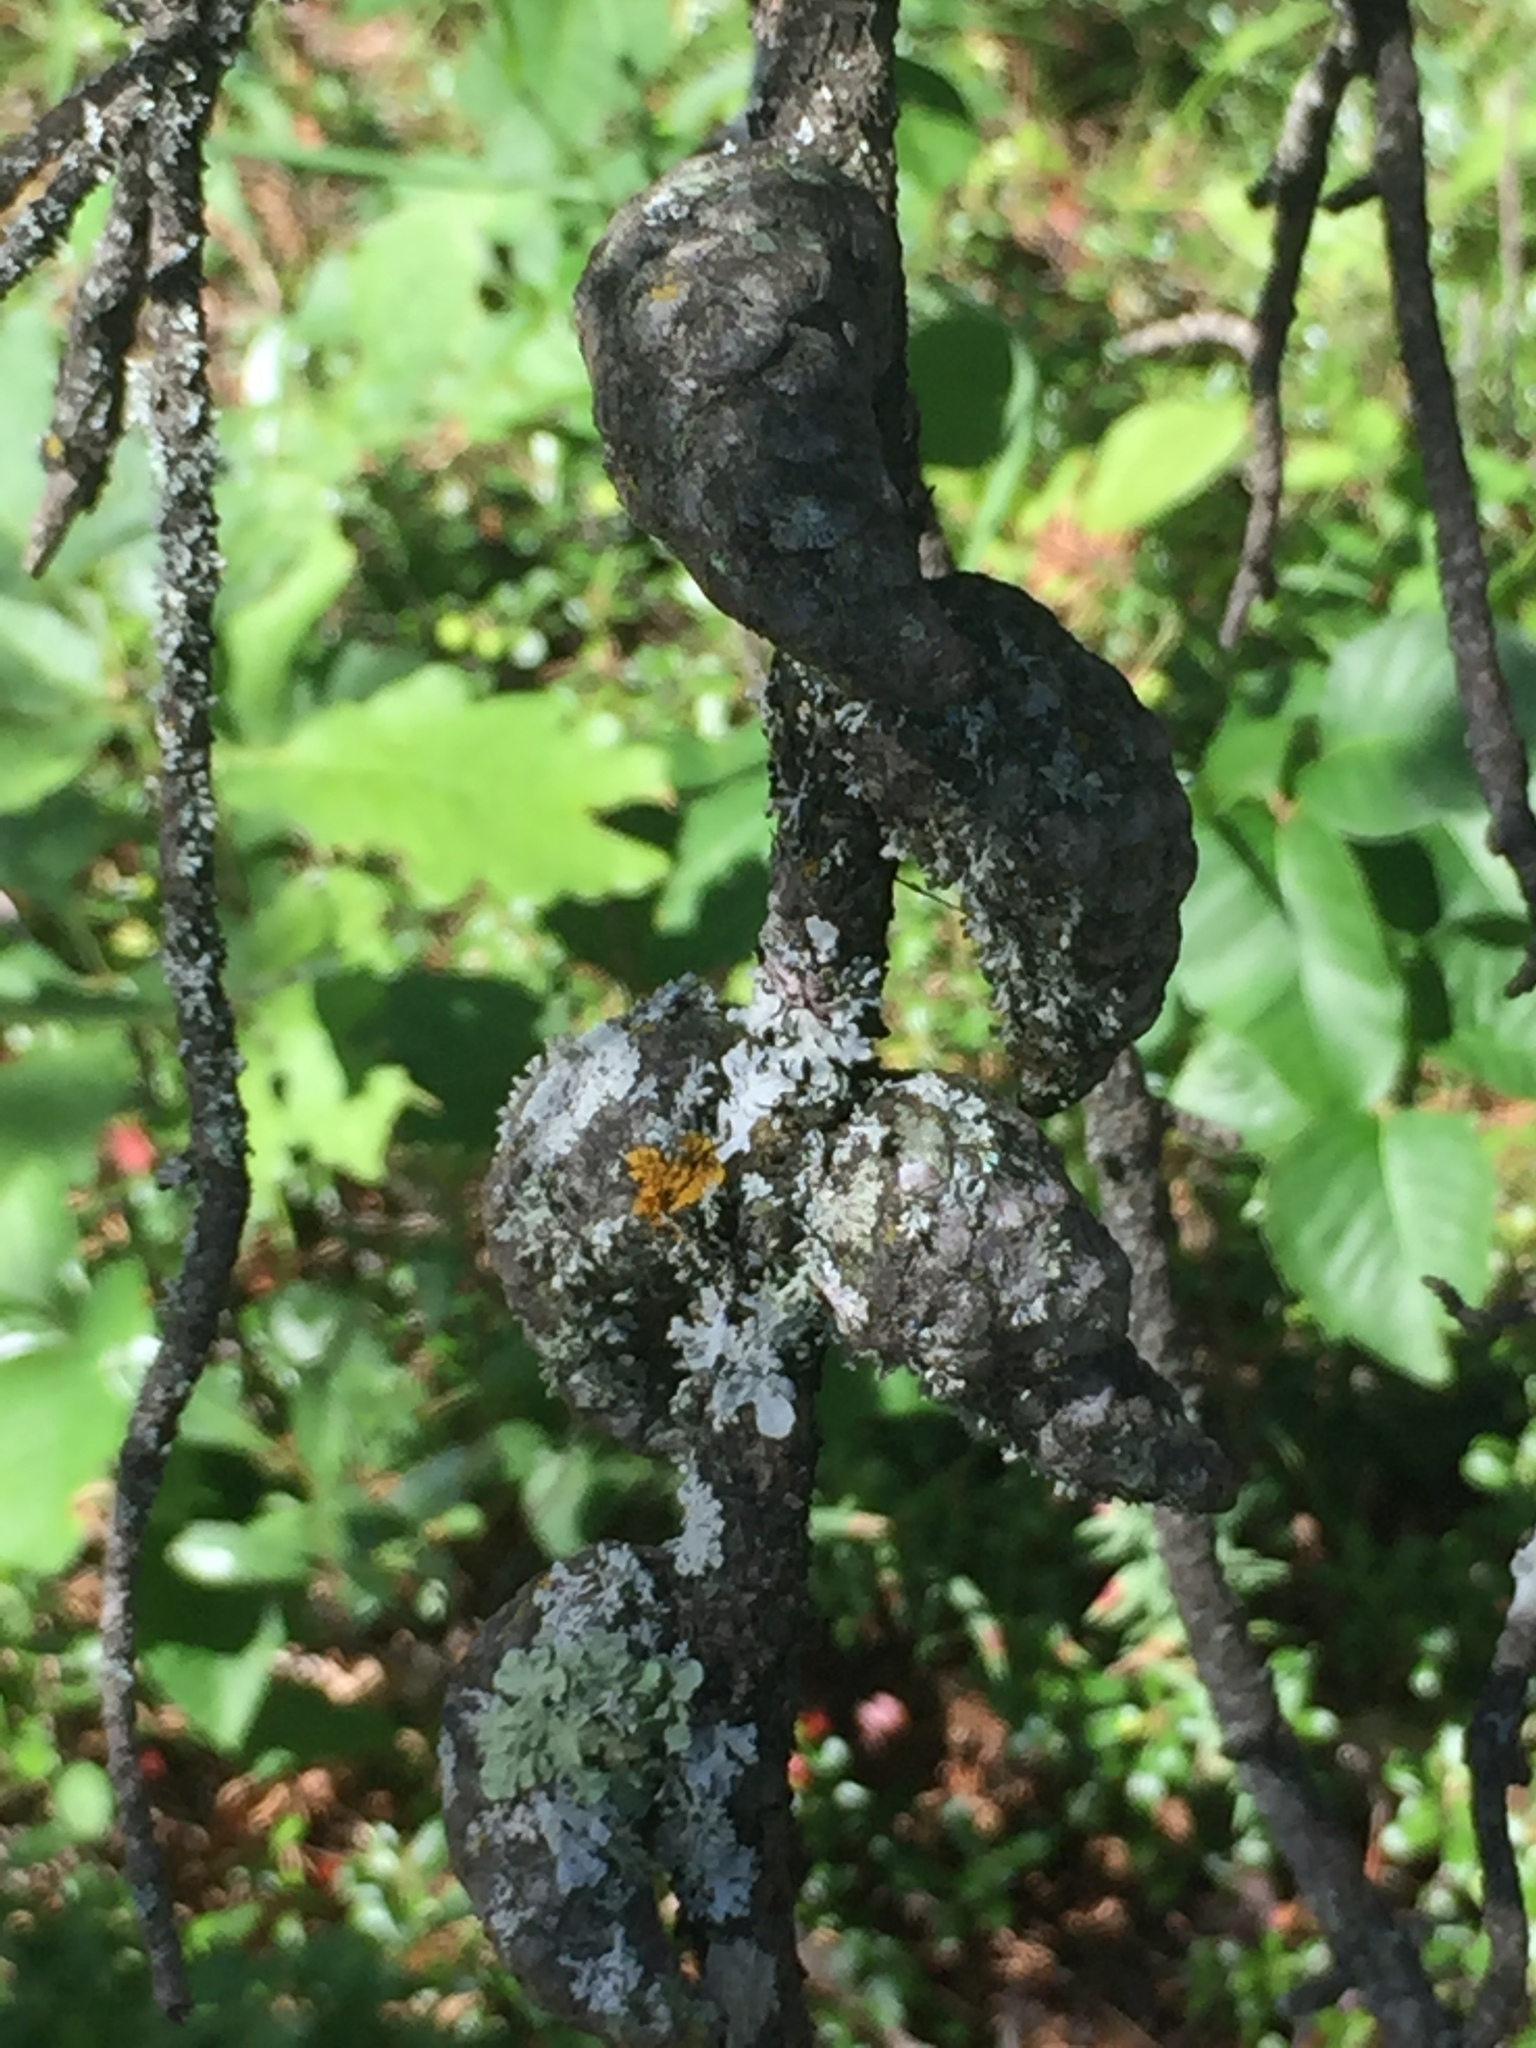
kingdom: Plantae
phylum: Tracheophyta
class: Pinopsida
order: Pinales
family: Pinaceae
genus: Pinus
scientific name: Pinus banksiana
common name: Jack pine
